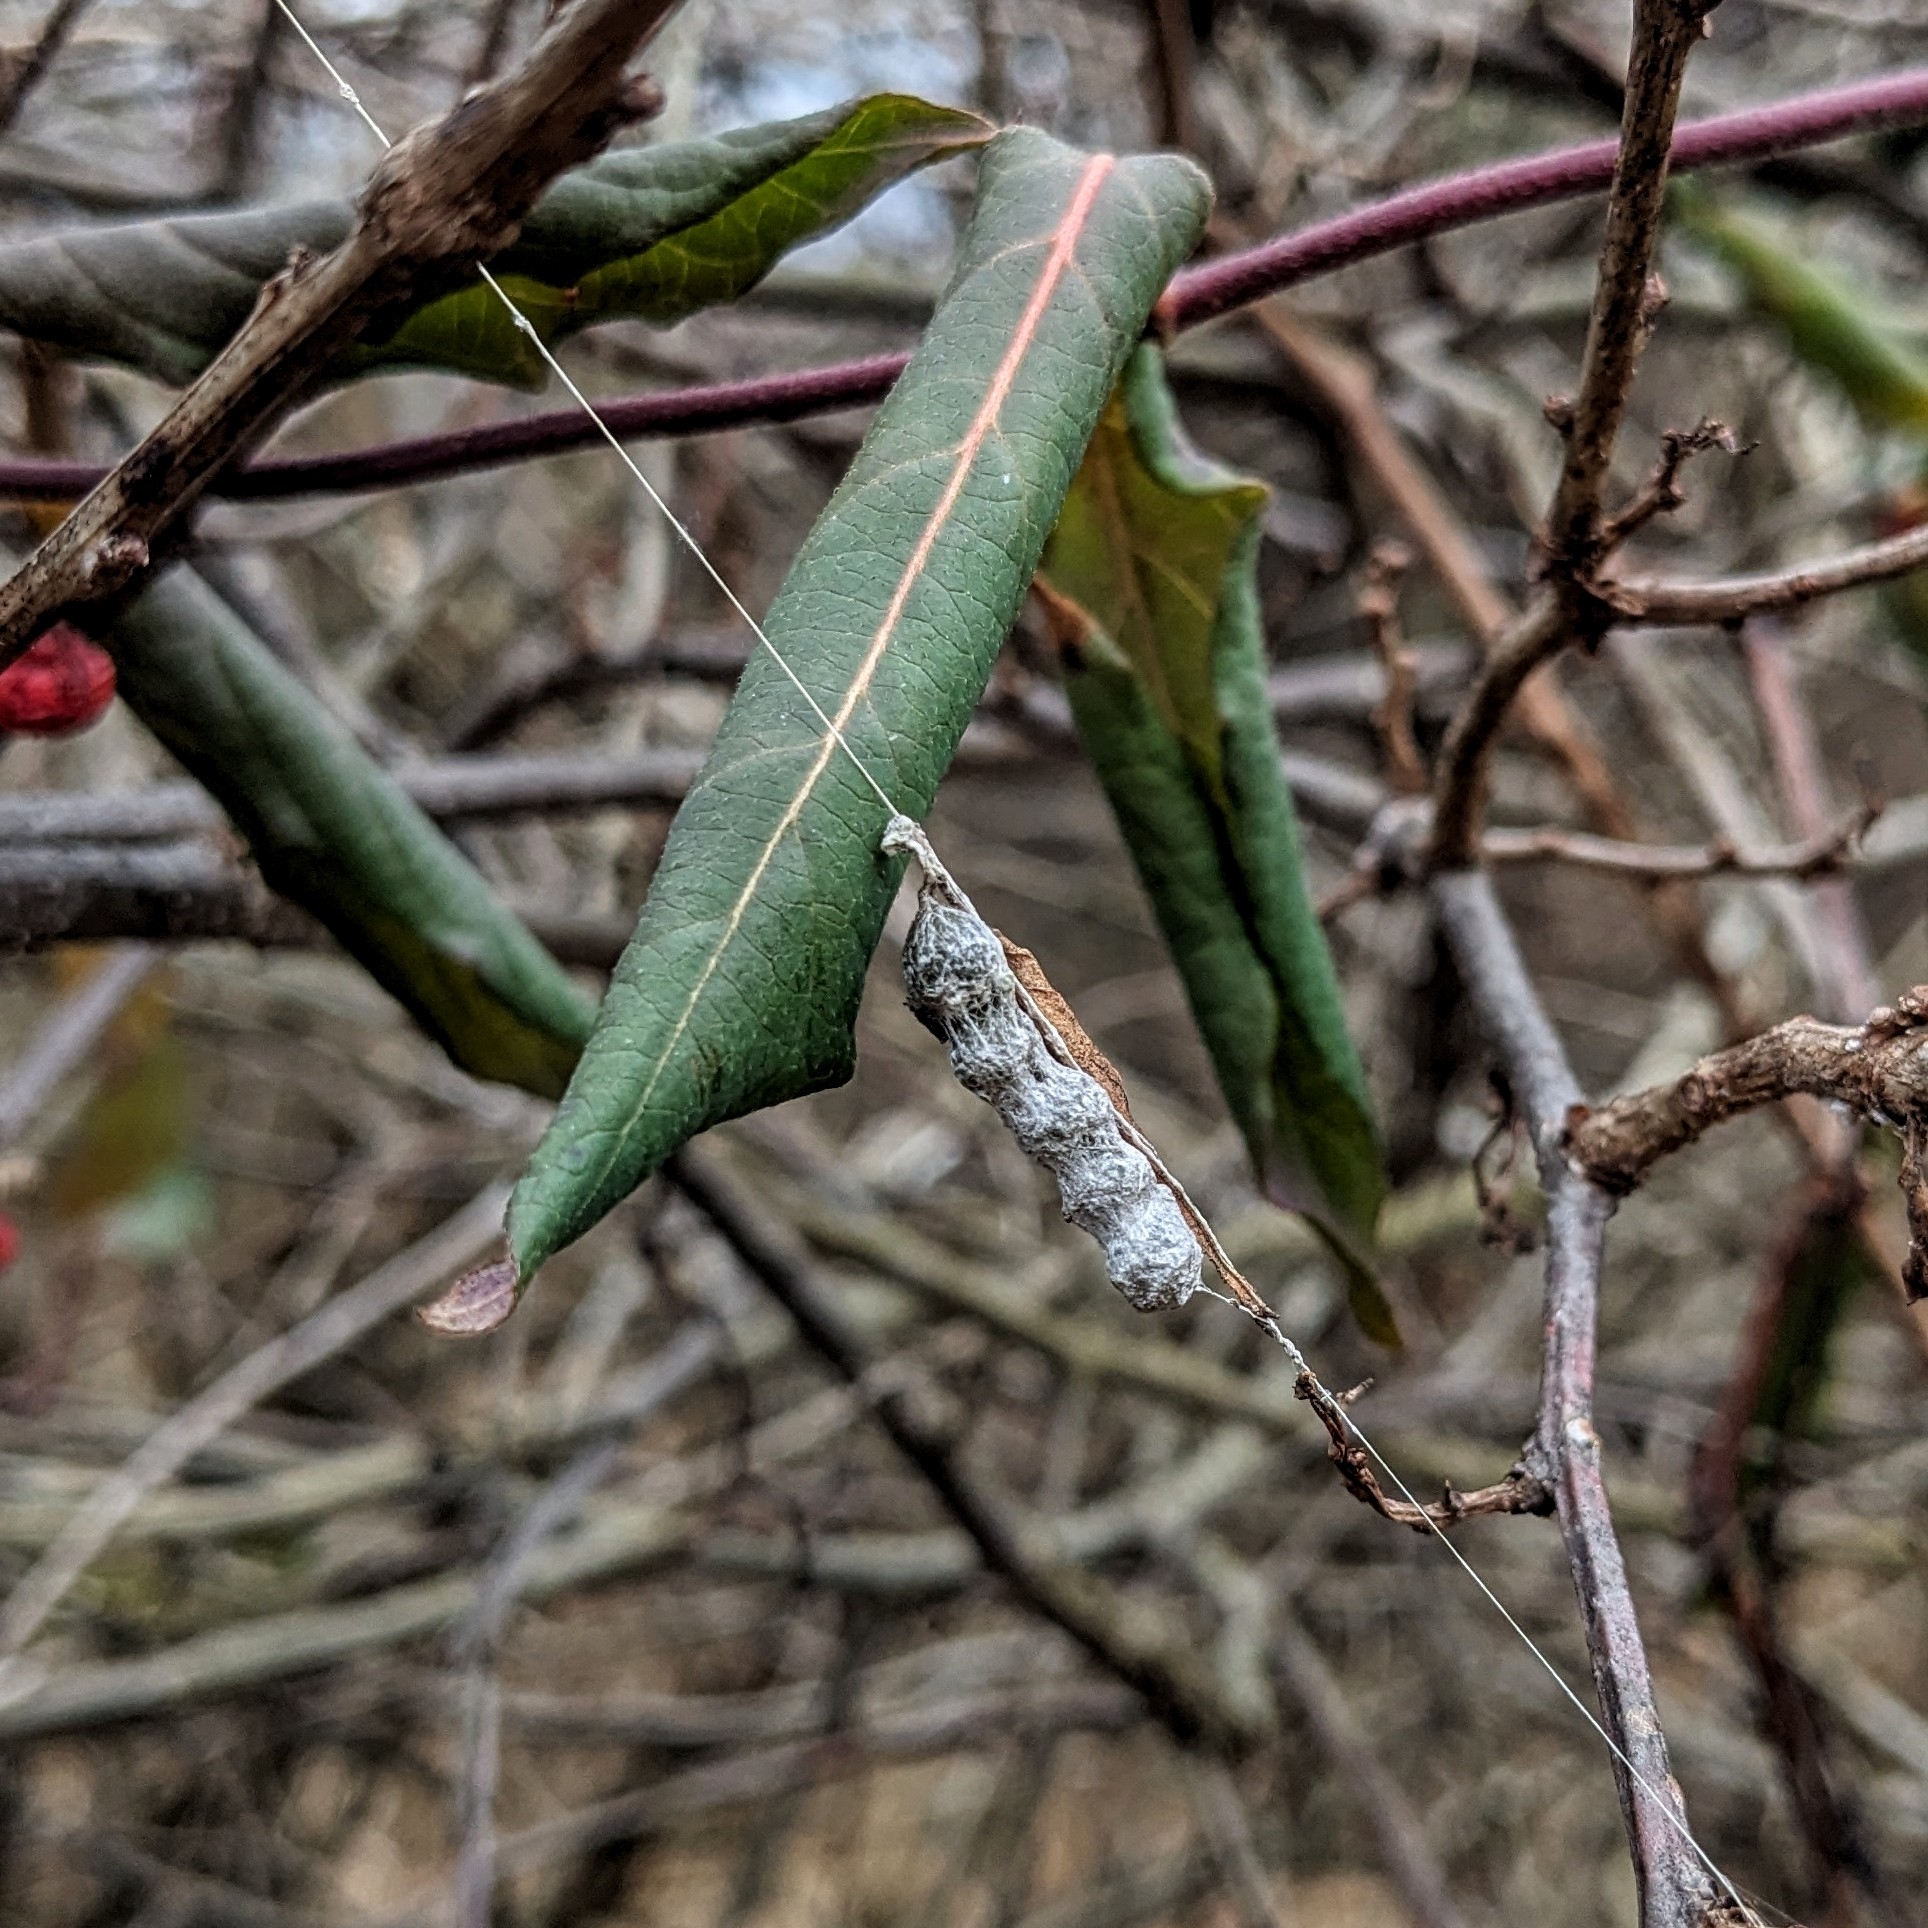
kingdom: Animalia
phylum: Arthropoda
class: Arachnida
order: Araneae
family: Araneidae
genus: Mecynogea
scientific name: Mecynogea lemniscata
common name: Orb weavers
